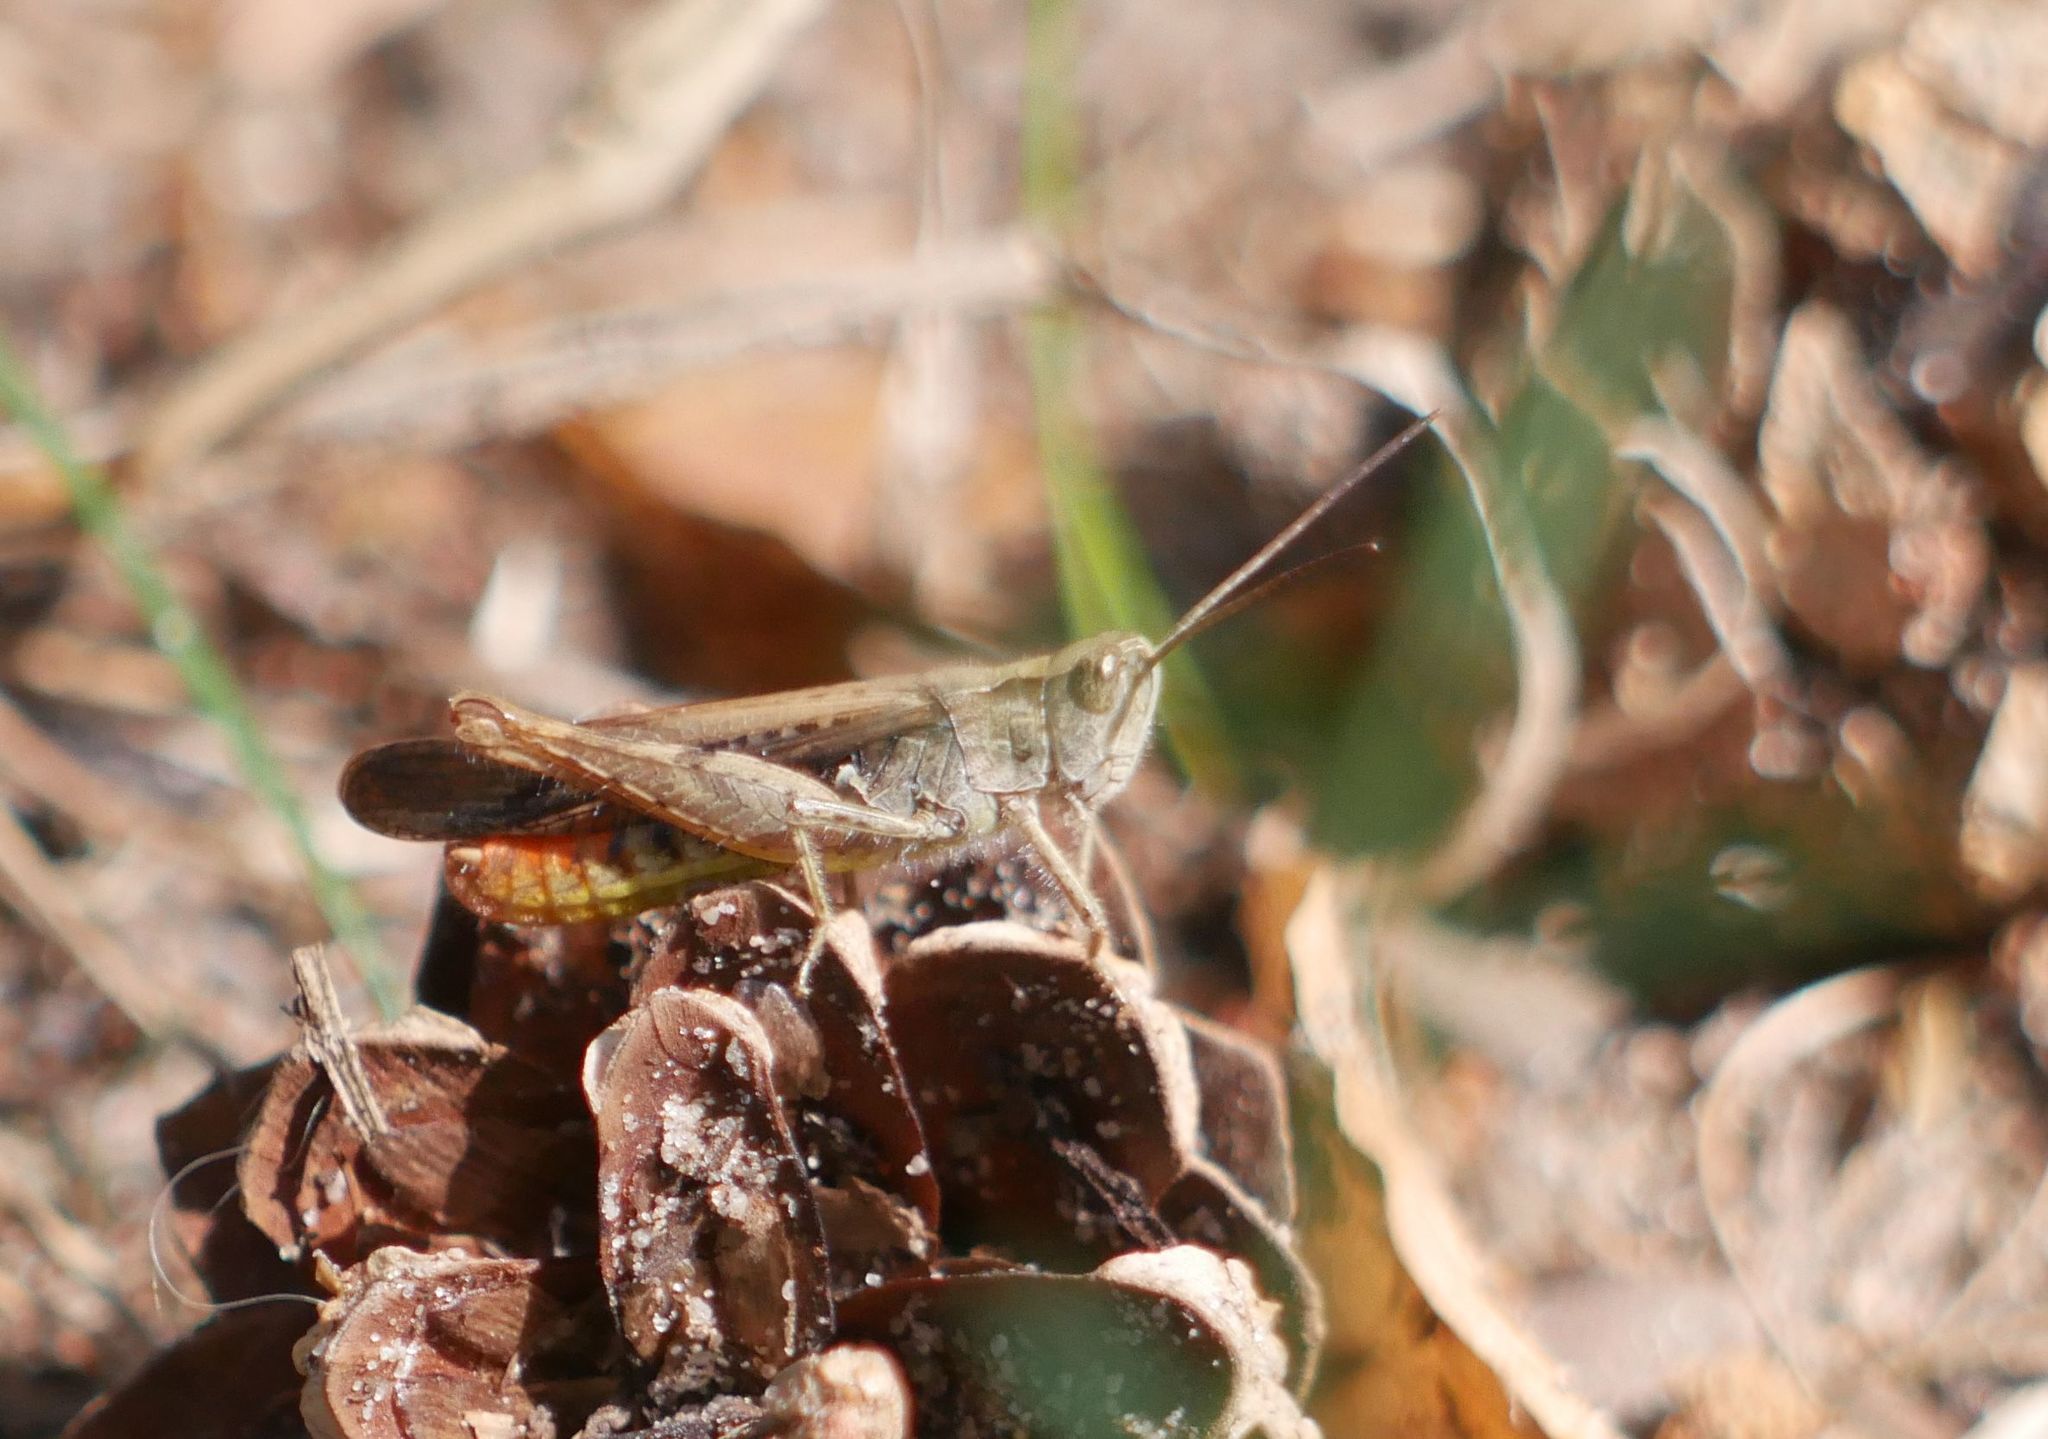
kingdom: Animalia
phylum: Arthropoda
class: Insecta
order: Orthoptera
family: Acrididae
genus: Chorthippus
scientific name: Chorthippus brunneus
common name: Field grasshopper
